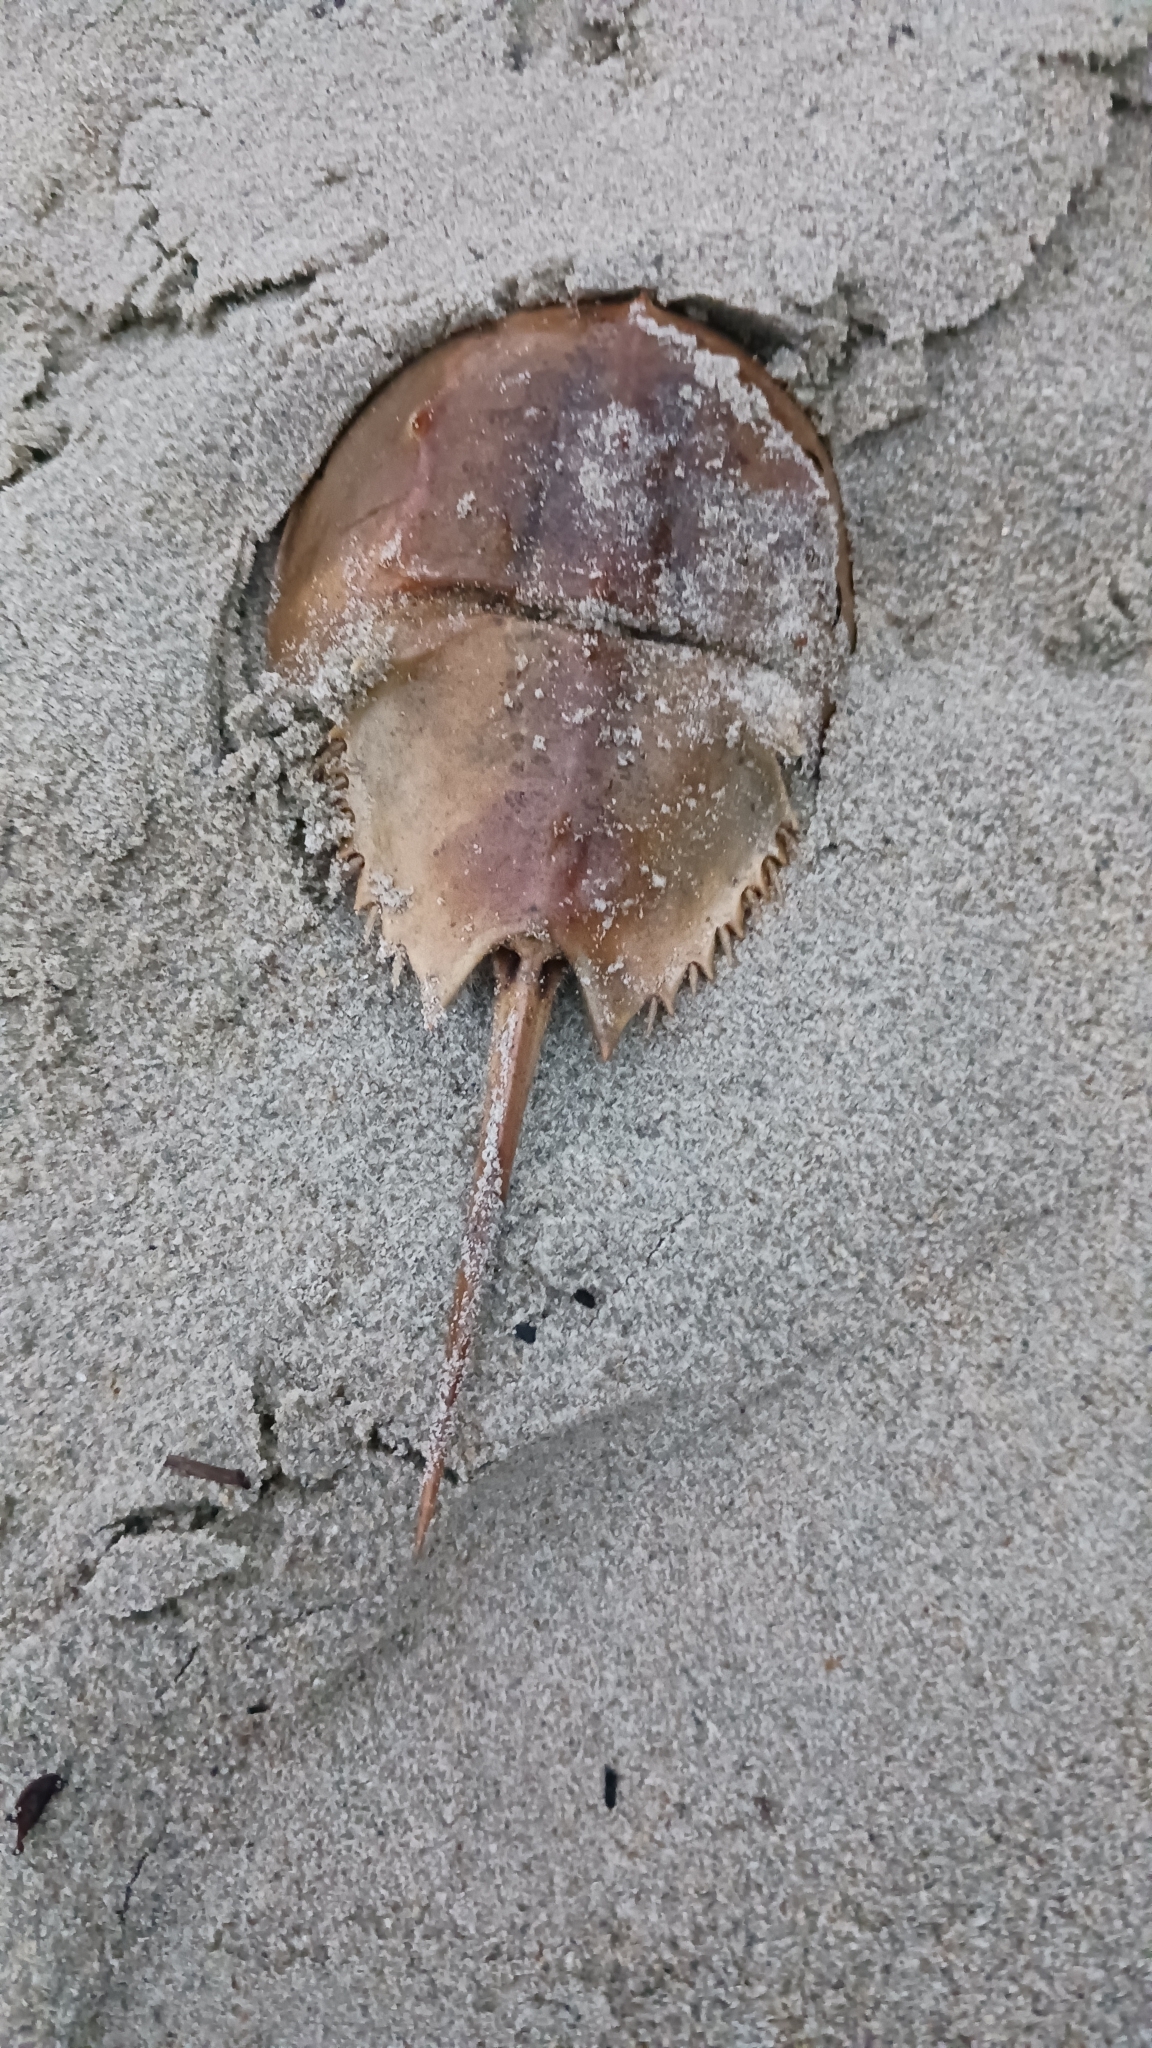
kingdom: Animalia
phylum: Arthropoda
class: Merostomata
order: Xiphosurida
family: Limulidae
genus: Limulus
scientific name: Limulus polyphemus
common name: Horseshoe crab
